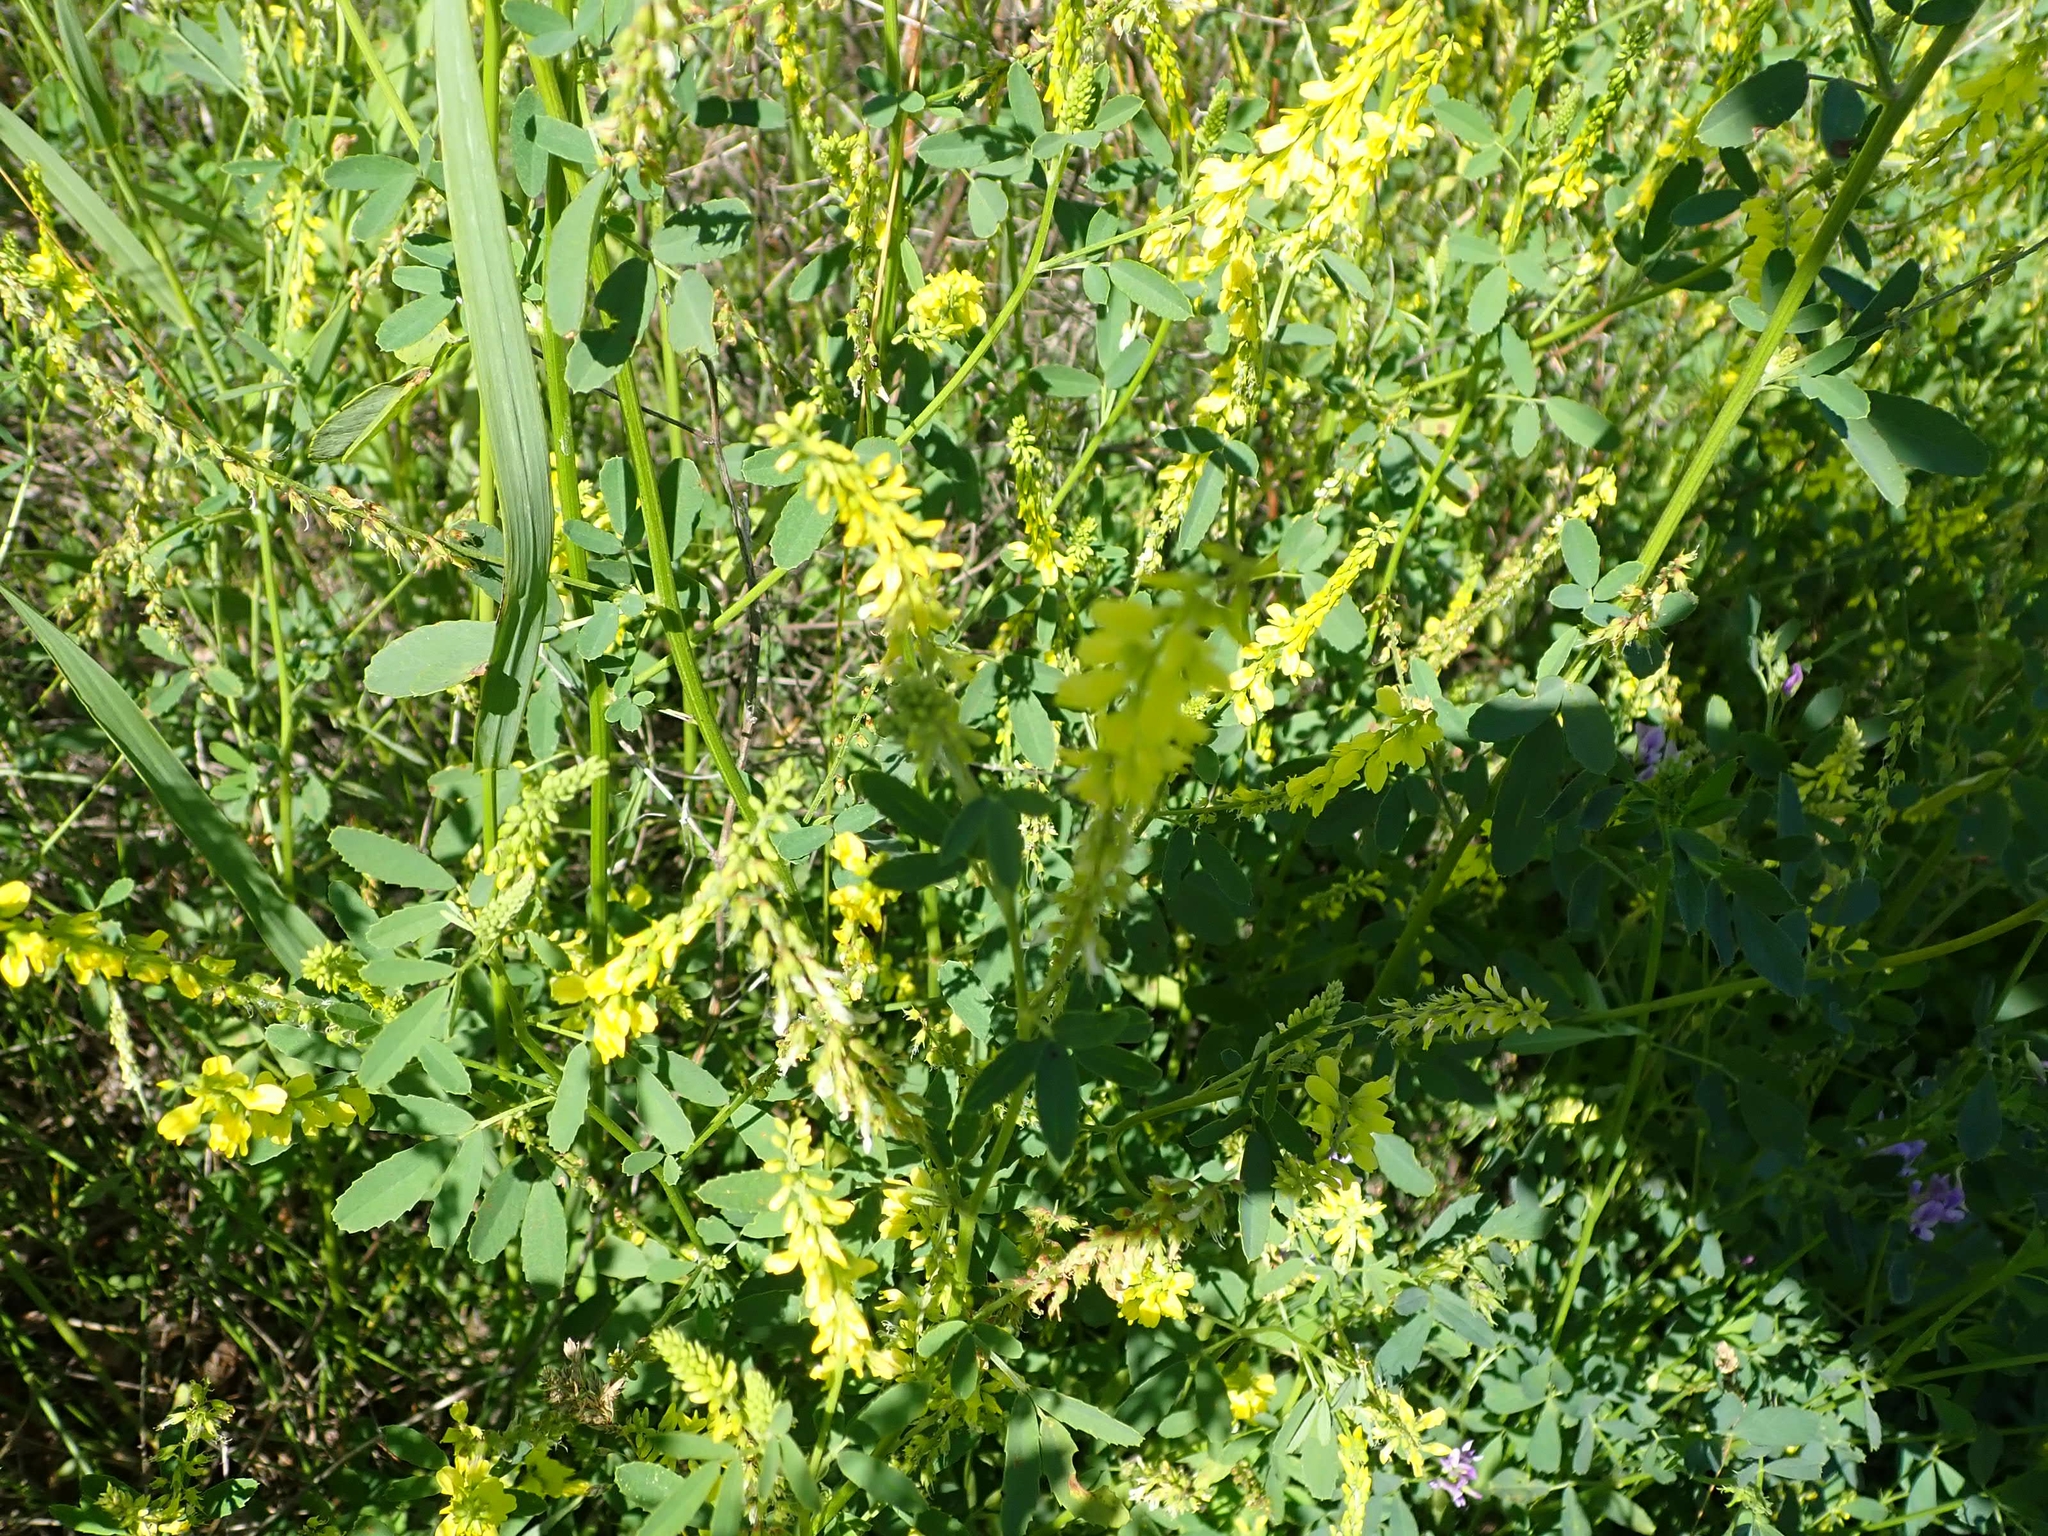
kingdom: Plantae
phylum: Tracheophyta
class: Magnoliopsida
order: Fabales
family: Fabaceae
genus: Melilotus
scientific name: Melilotus officinalis
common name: Sweetclover
